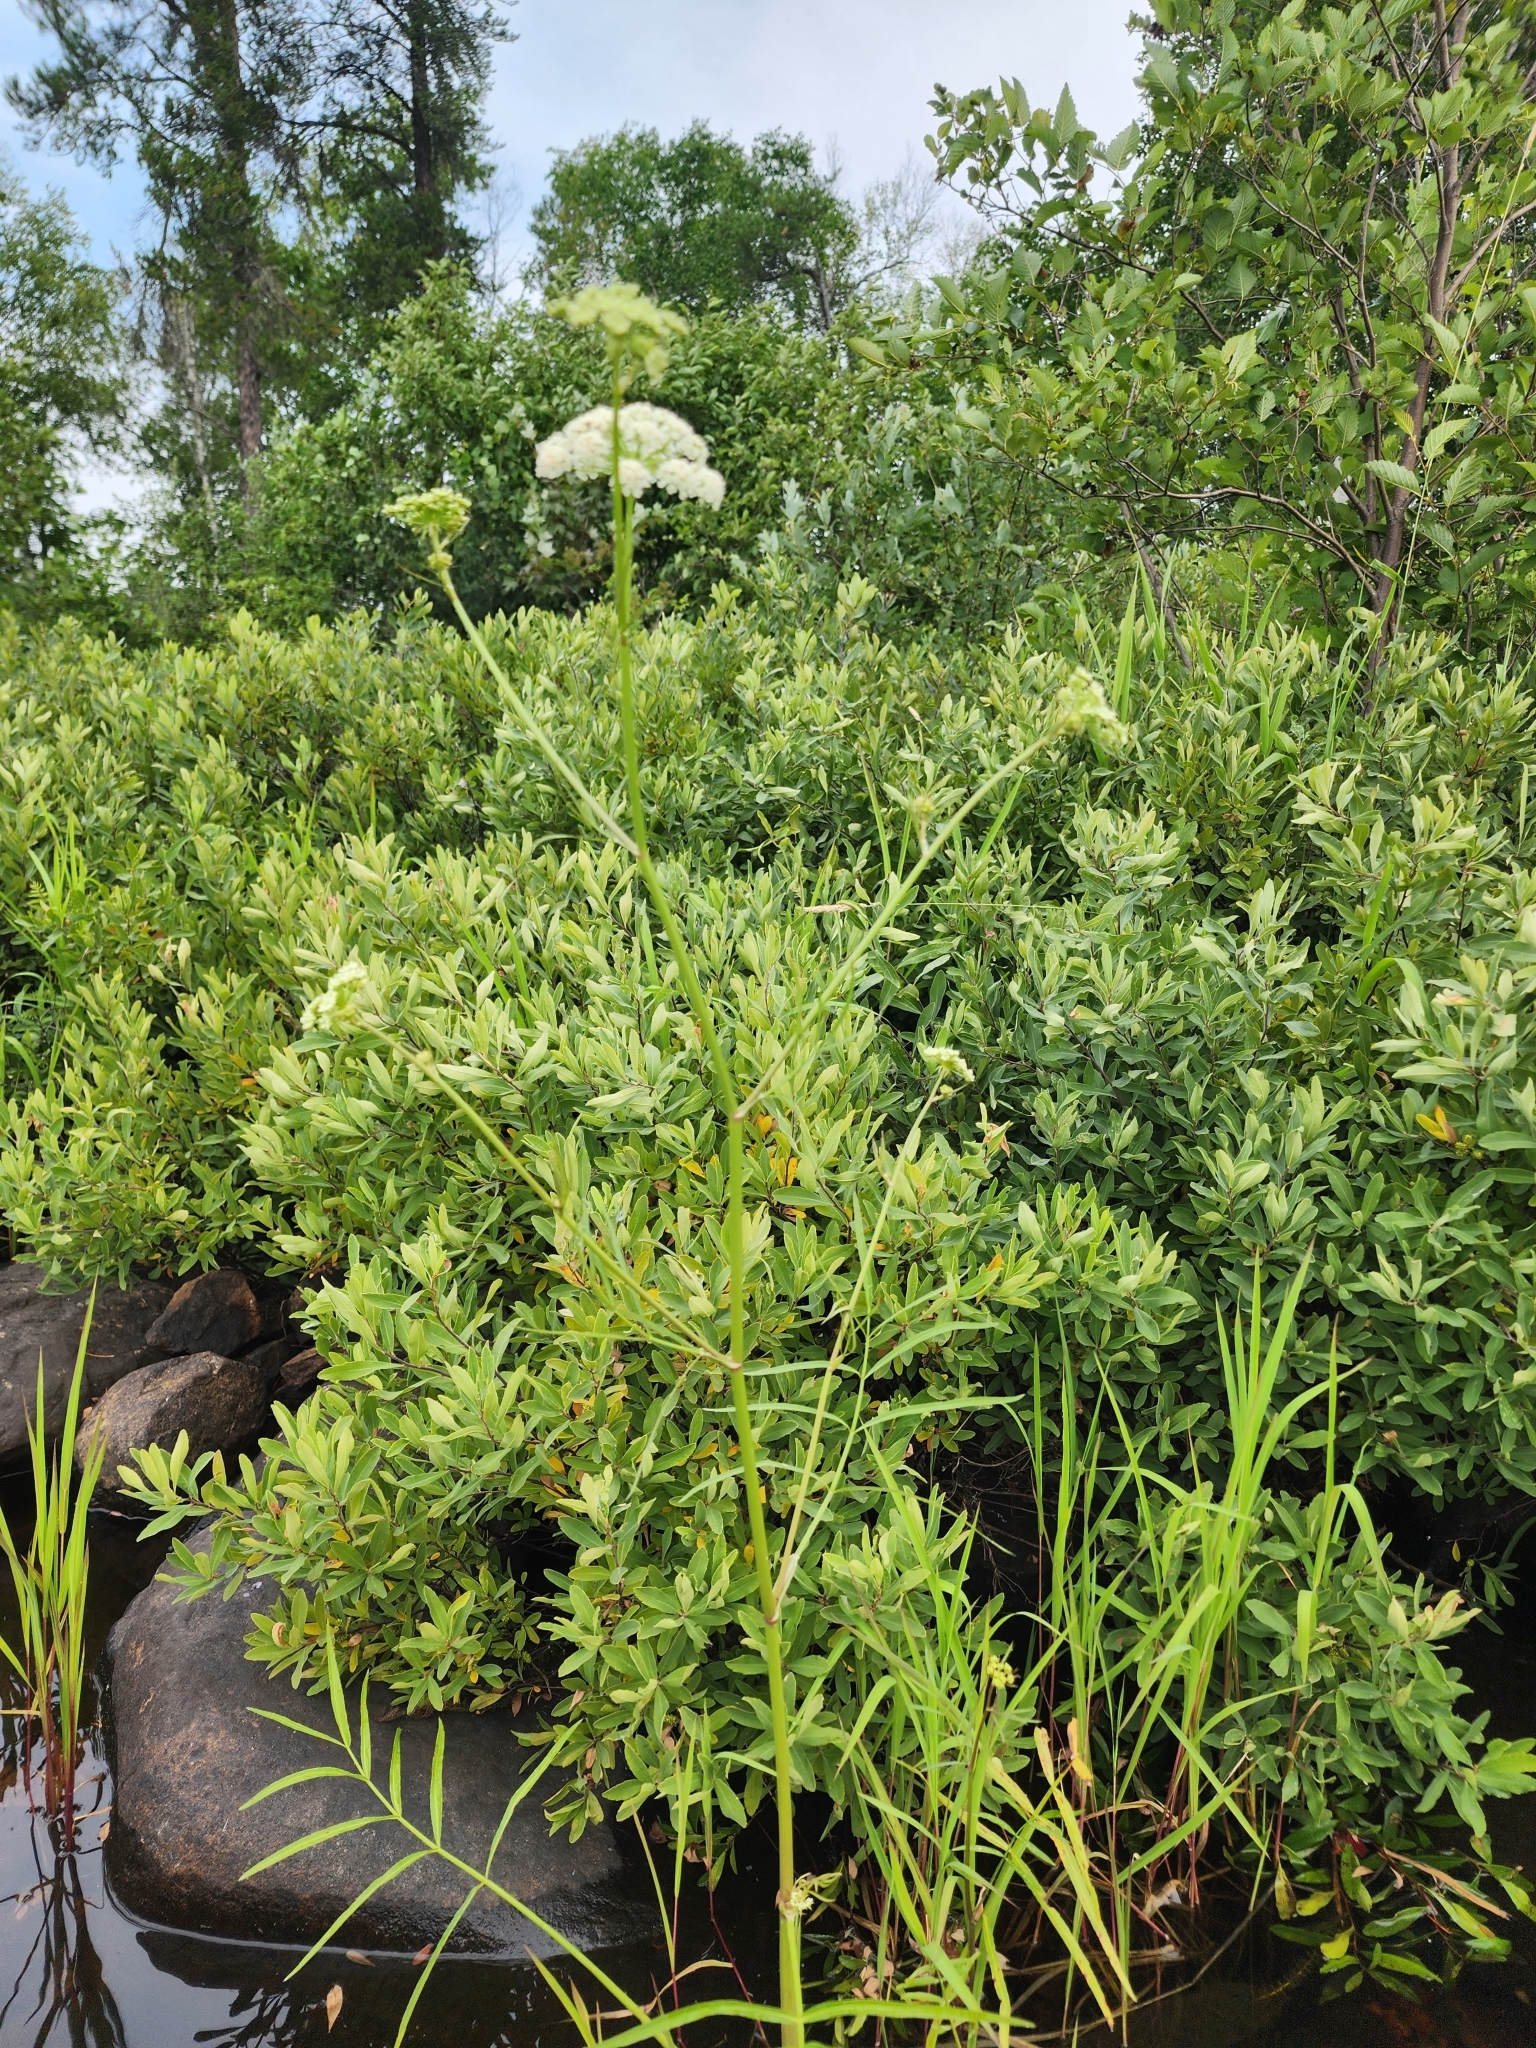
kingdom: Plantae
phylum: Tracheophyta
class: Magnoliopsida
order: Apiales
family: Apiaceae
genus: Sium
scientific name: Sium suave
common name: Hemlock water-parsnip
